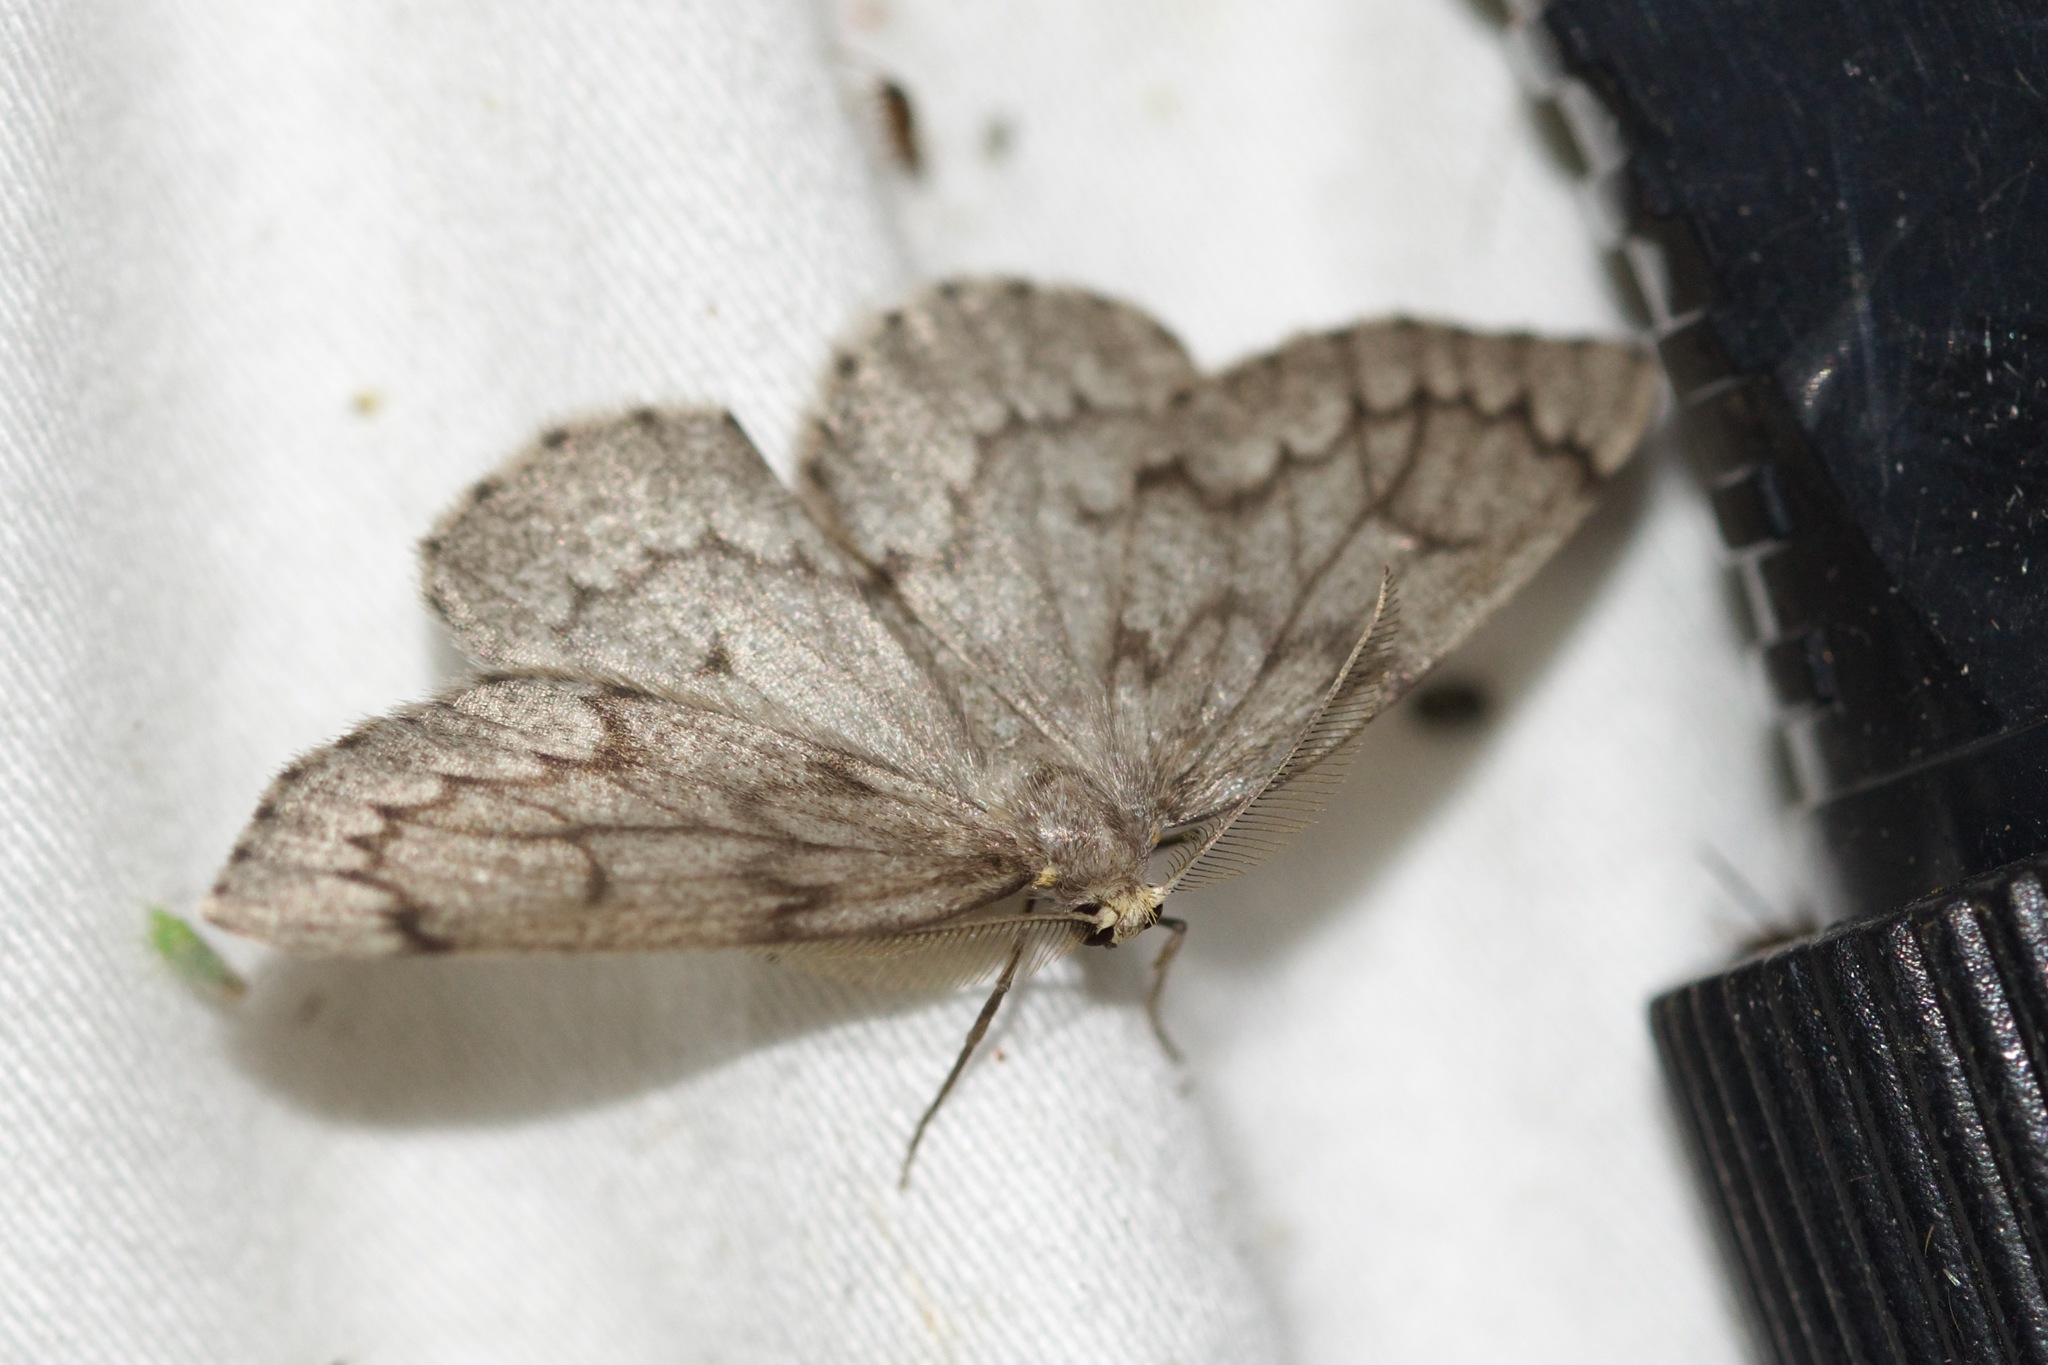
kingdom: Animalia
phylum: Arthropoda
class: Insecta
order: Lepidoptera
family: Geometridae
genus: Nepytia
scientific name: Nepytia canosaria
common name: False hemlock looper
